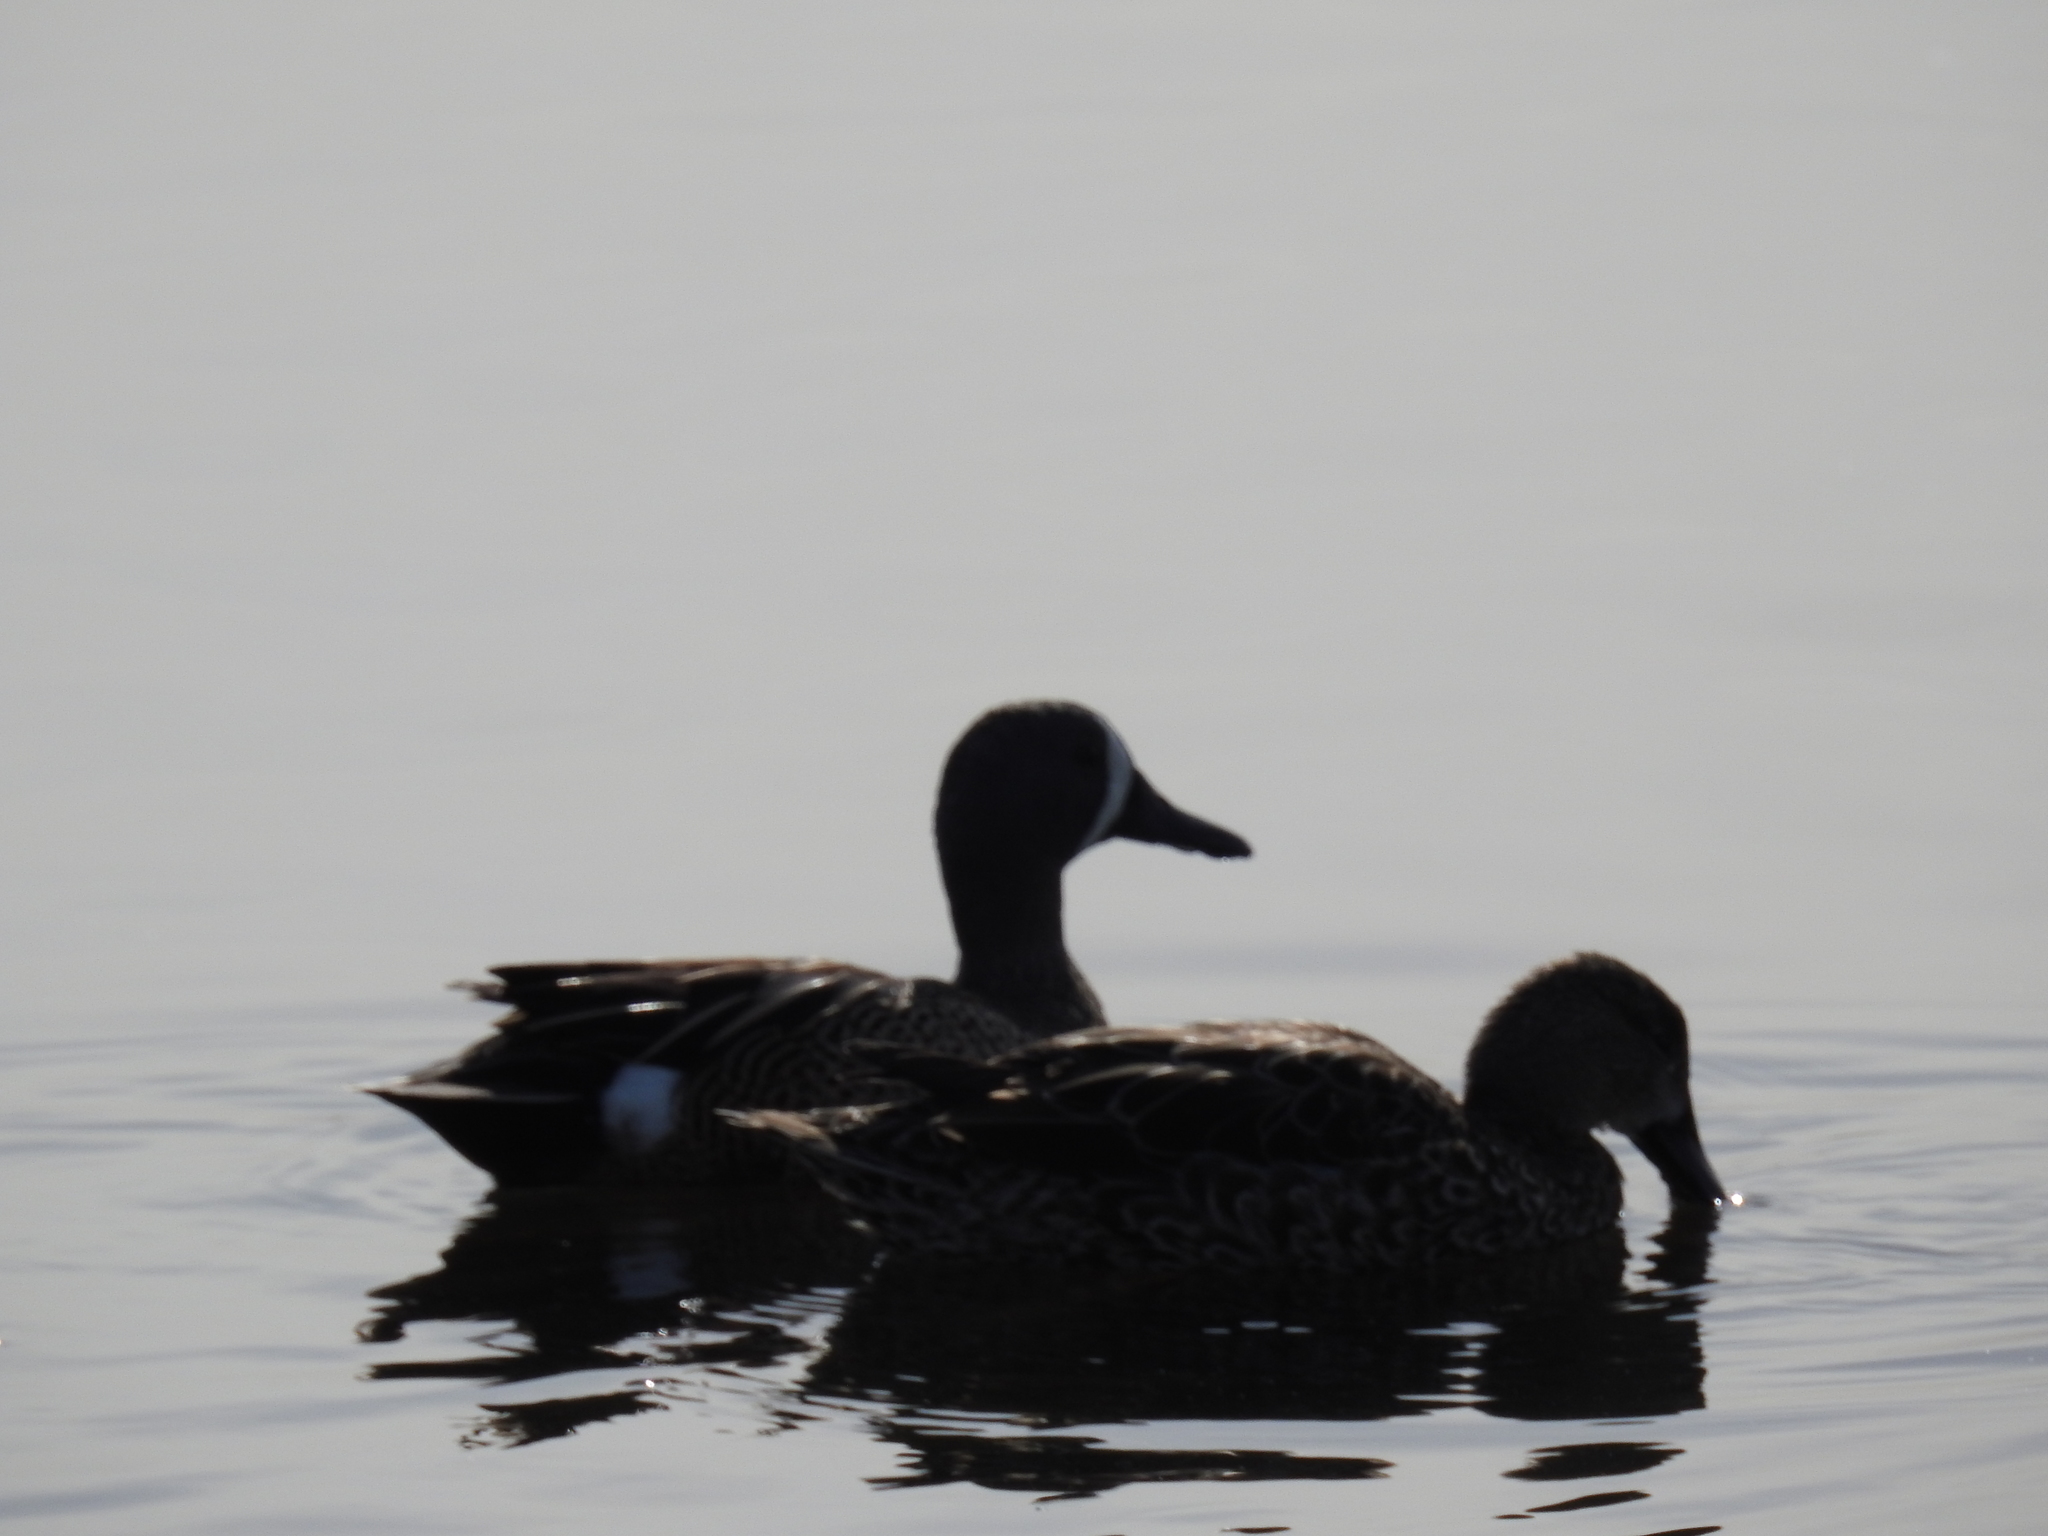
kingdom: Animalia
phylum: Chordata
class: Aves
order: Anseriformes
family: Anatidae
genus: Spatula
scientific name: Spatula discors
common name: Blue-winged teal
